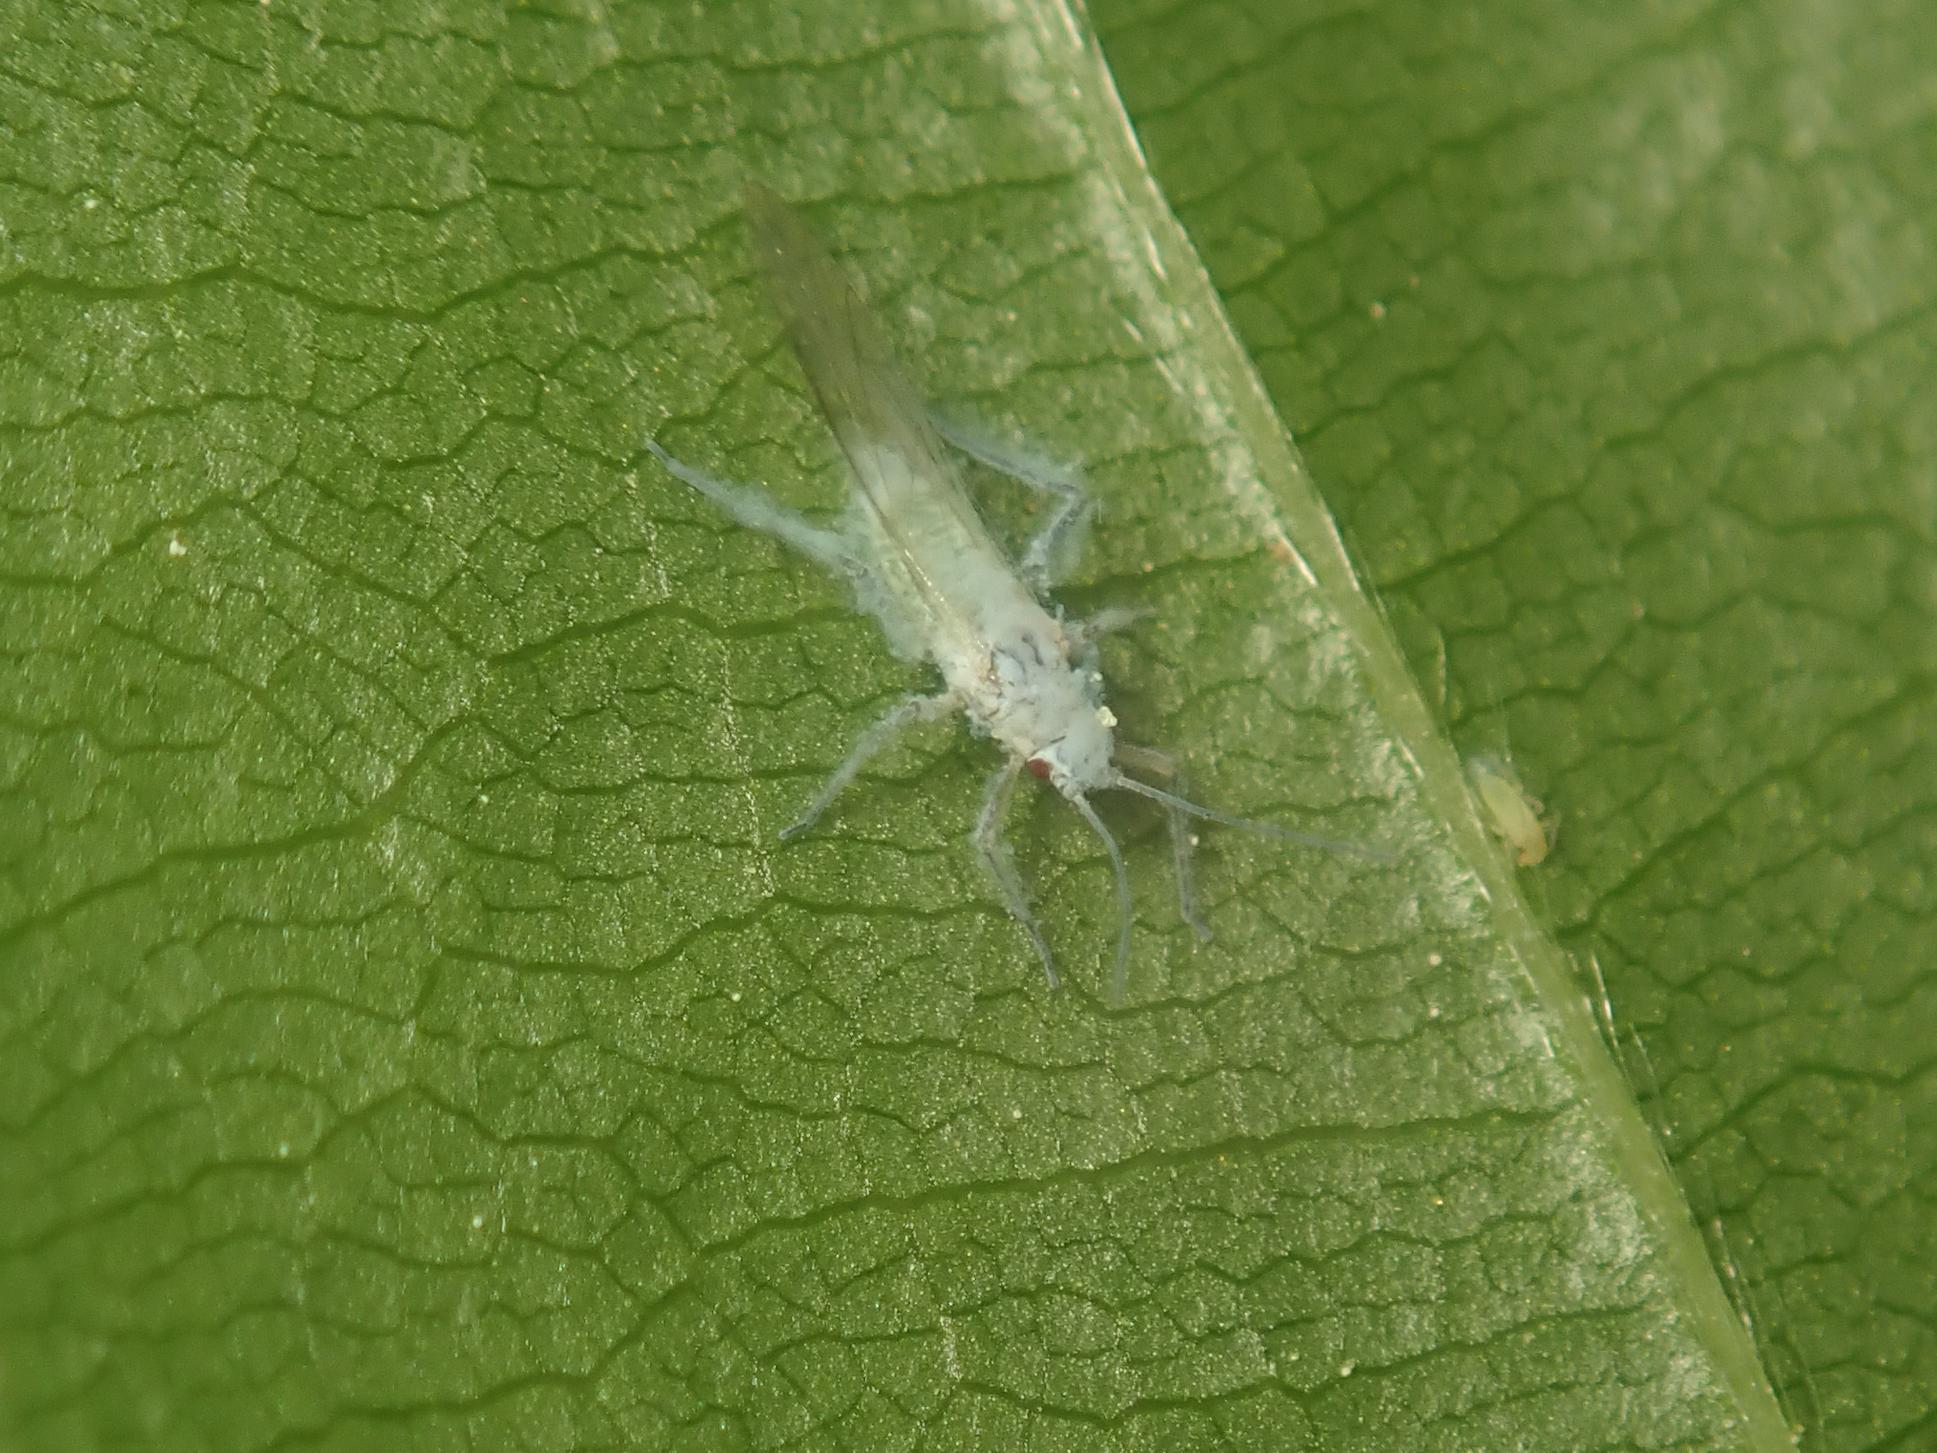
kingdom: Animalia
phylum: Arthropoda
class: Insecta
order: Hemiptera
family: Aphididae
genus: Phyllaphis
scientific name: Phyllaphis fagi
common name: Beech aphid
